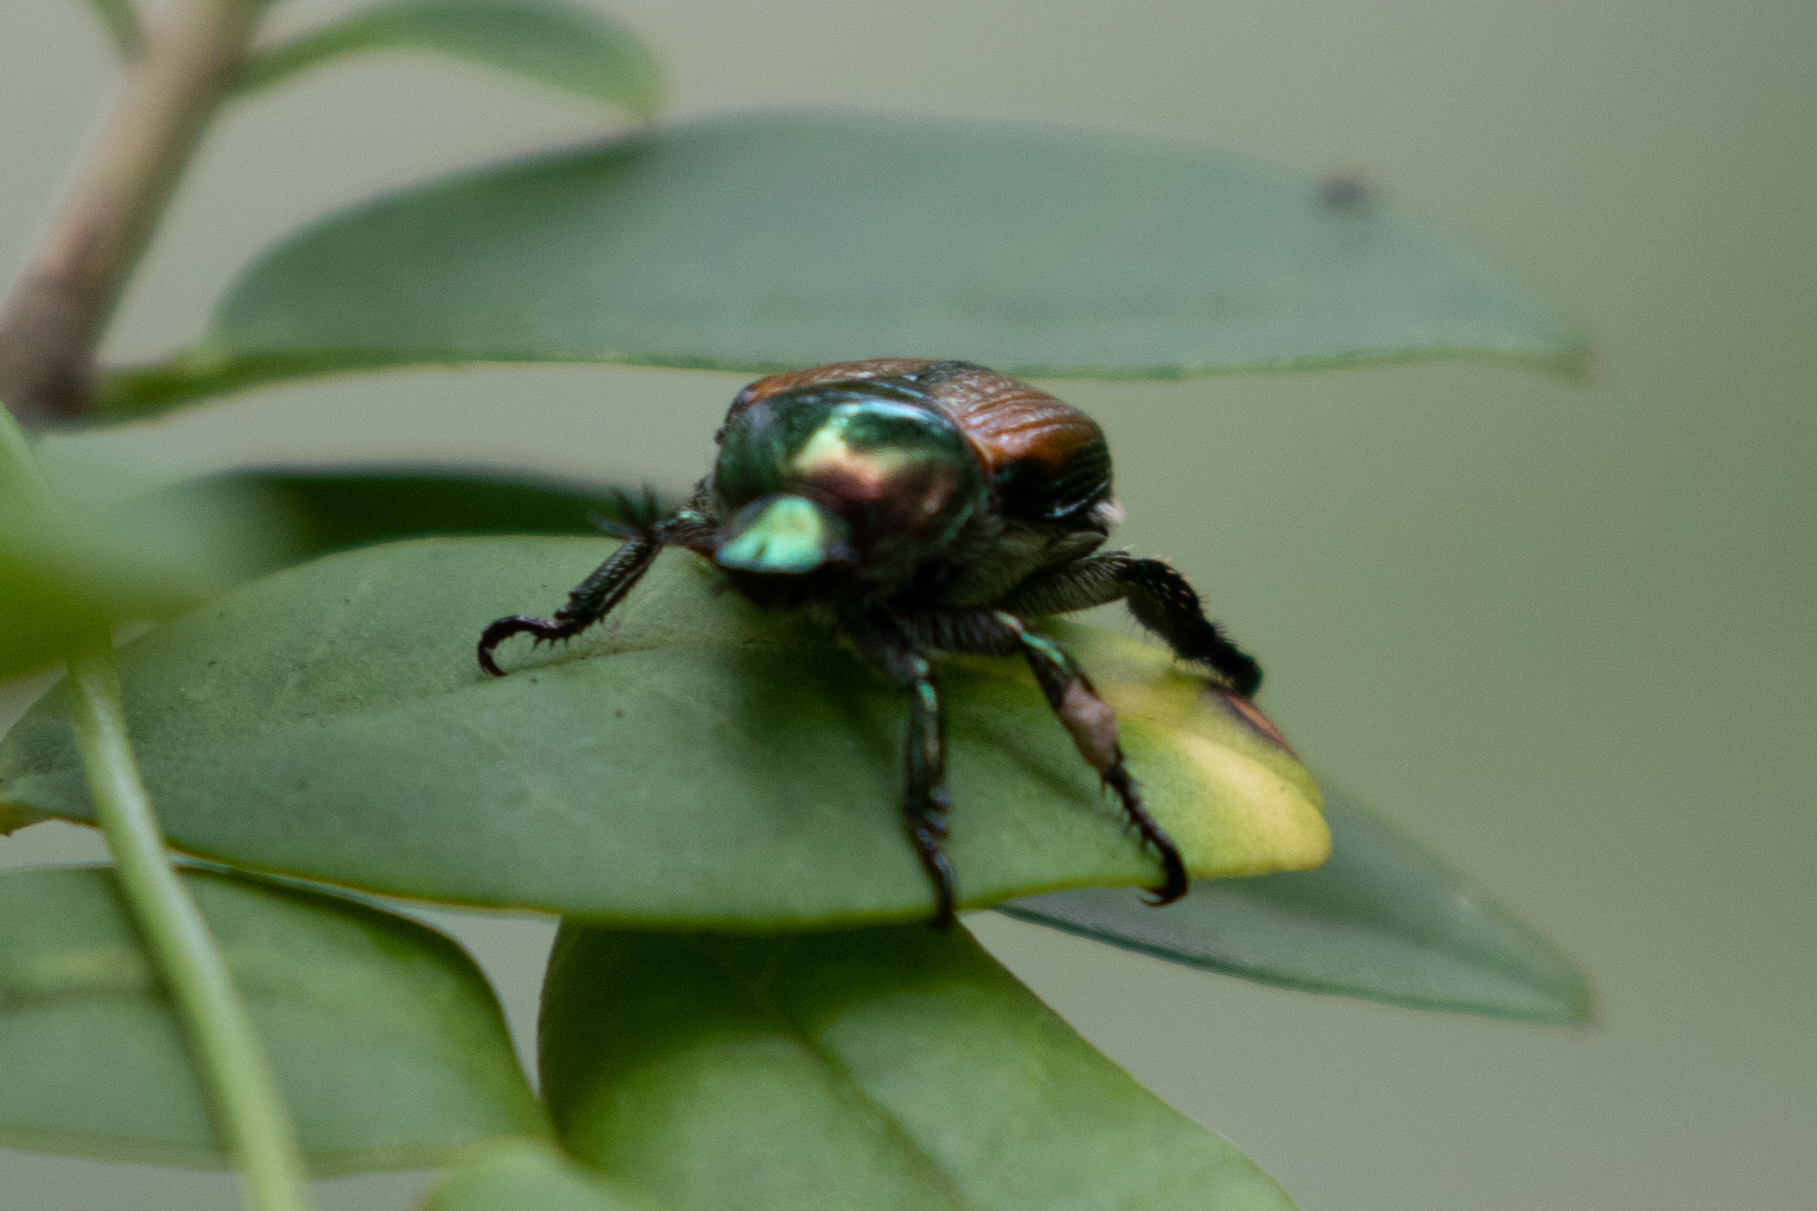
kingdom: Animalia
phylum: Arthropoda
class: Insecta
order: Coleoptera
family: Scarabaeidae
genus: Popillia
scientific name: Popillia japonica
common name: Japanese beetle
